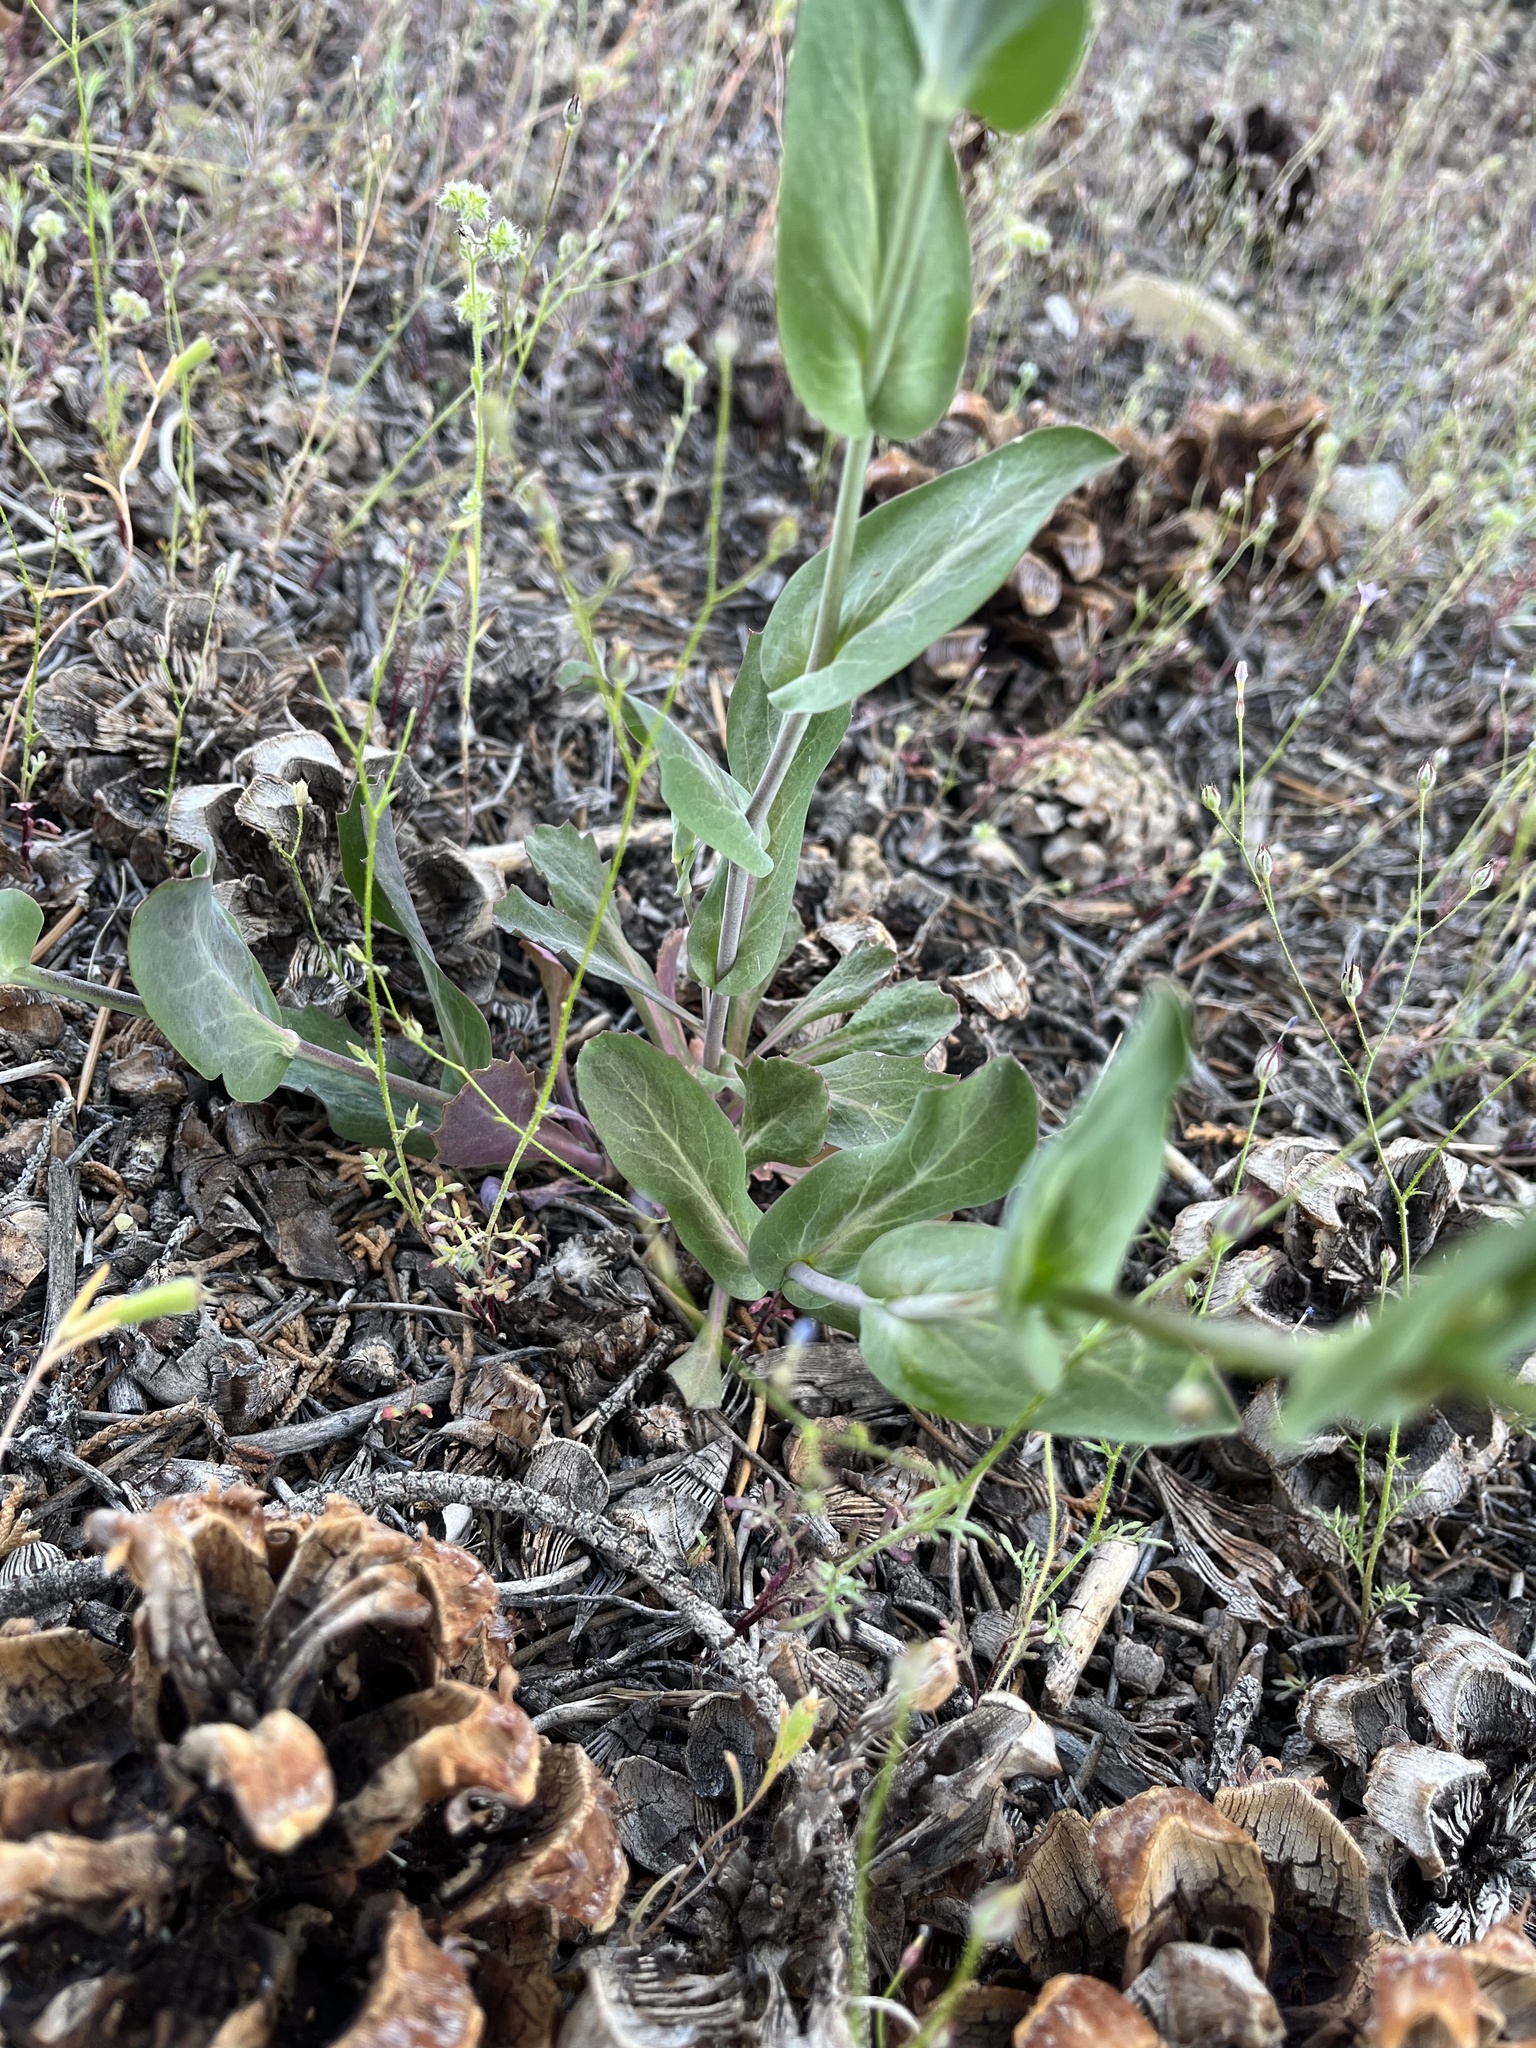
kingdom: Plantae
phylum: Tracheophyta
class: Magnoliopsida
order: Brassicales
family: Brassicaceae
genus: Streptanthus
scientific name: Streptanthus cordatus
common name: Heart-leaf jewel-flower
